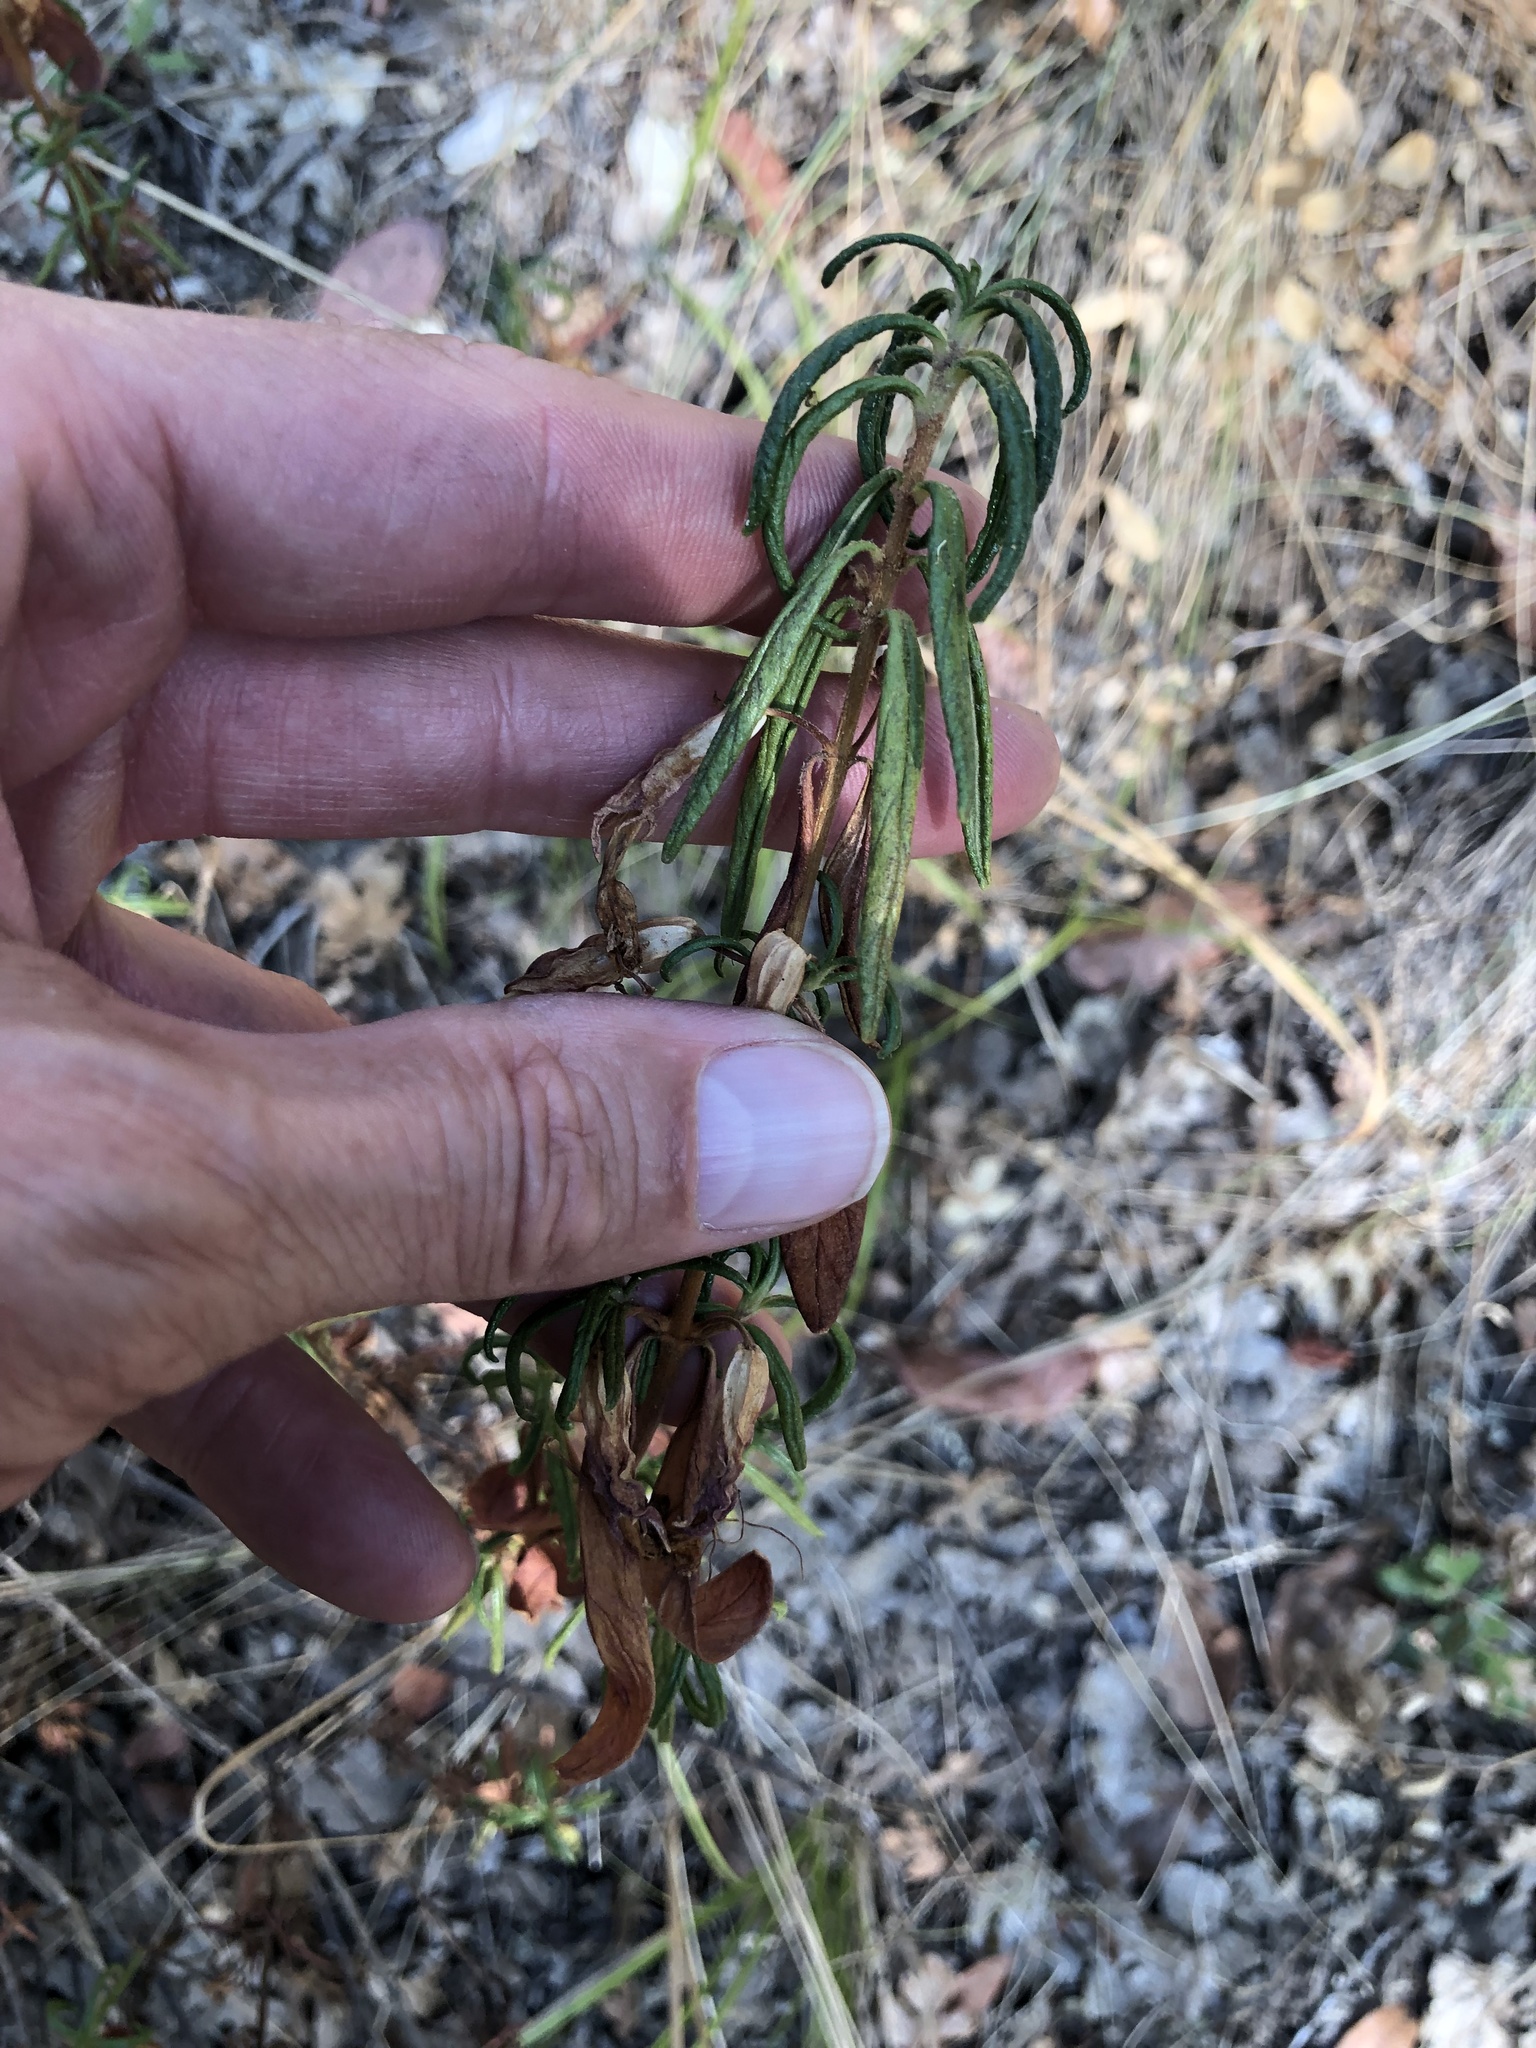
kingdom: Plantae
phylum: Tracheophyta
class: Magnoliopsida
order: Lamiales
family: Phrymaceae
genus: Diplacus
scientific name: Diplacus aurantiacus
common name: Bush monkey-flower
